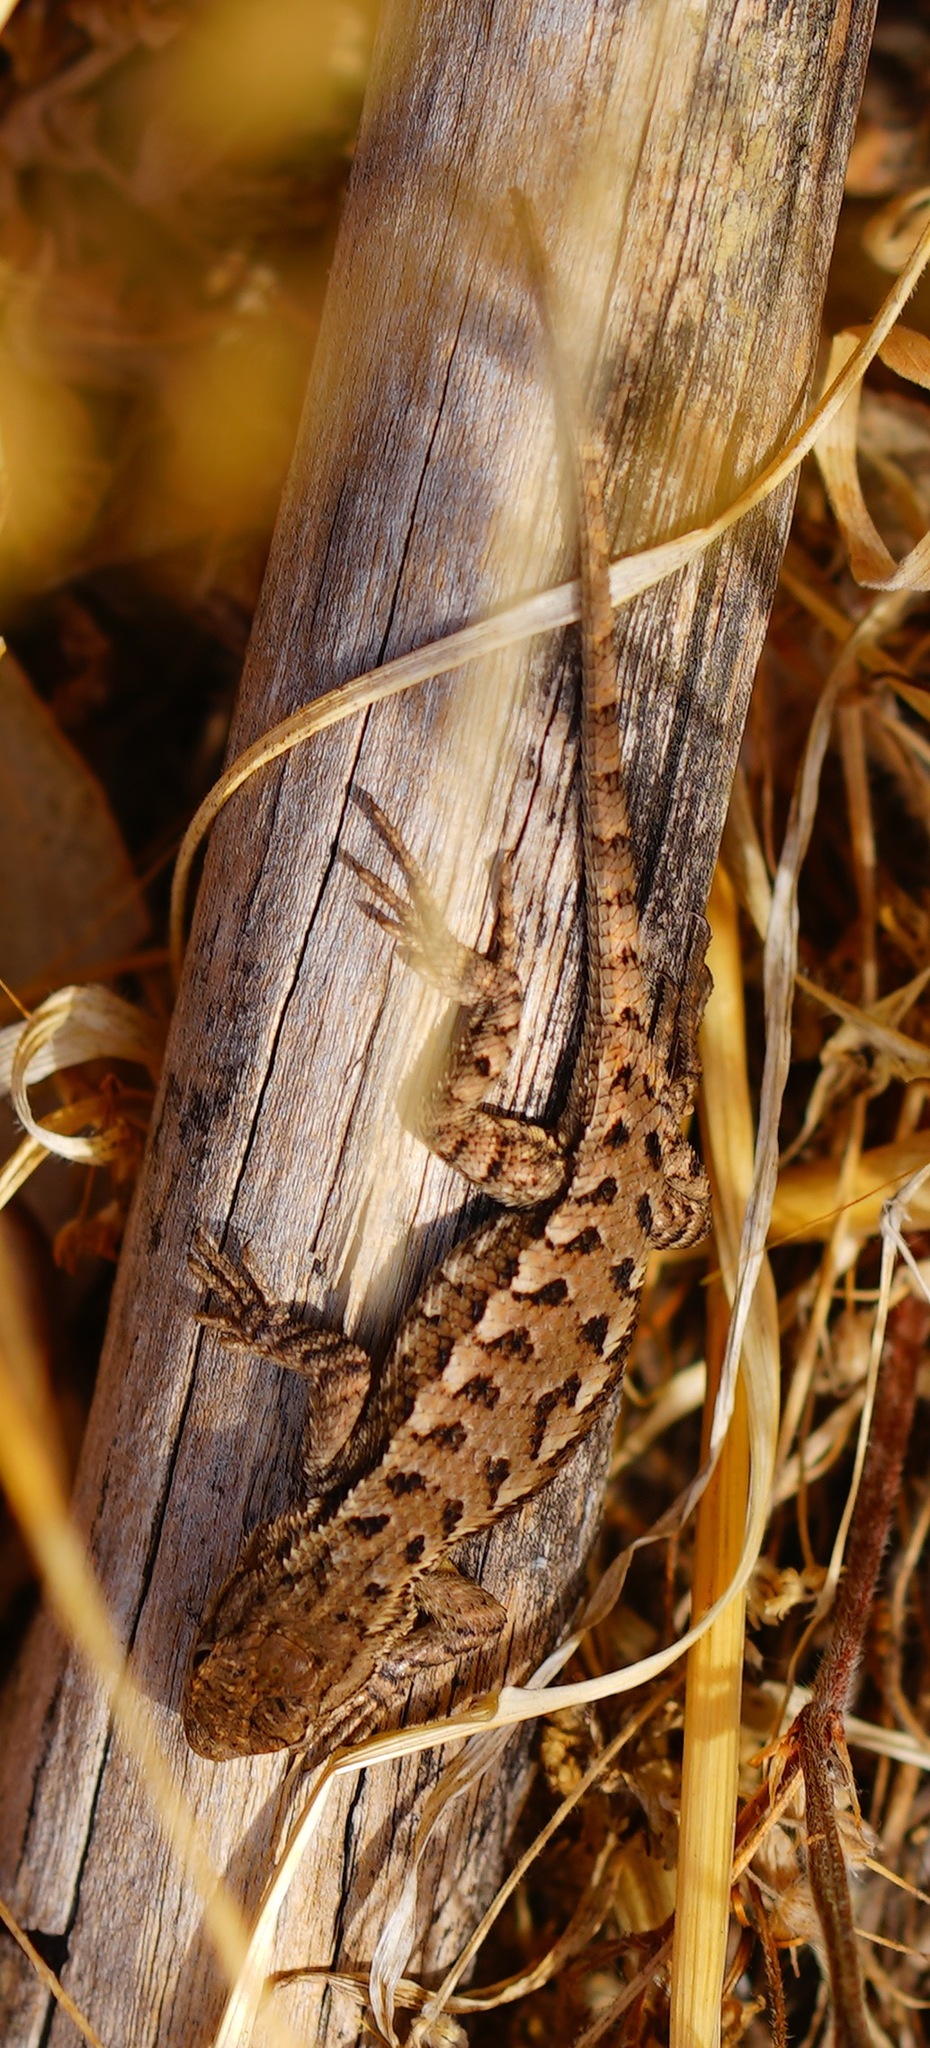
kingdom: Animalia
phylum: Chordata
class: Squamata
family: Phrynosomatidae
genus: Sceloporus
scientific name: Sceloporus occidentalis
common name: Western fence lizard
